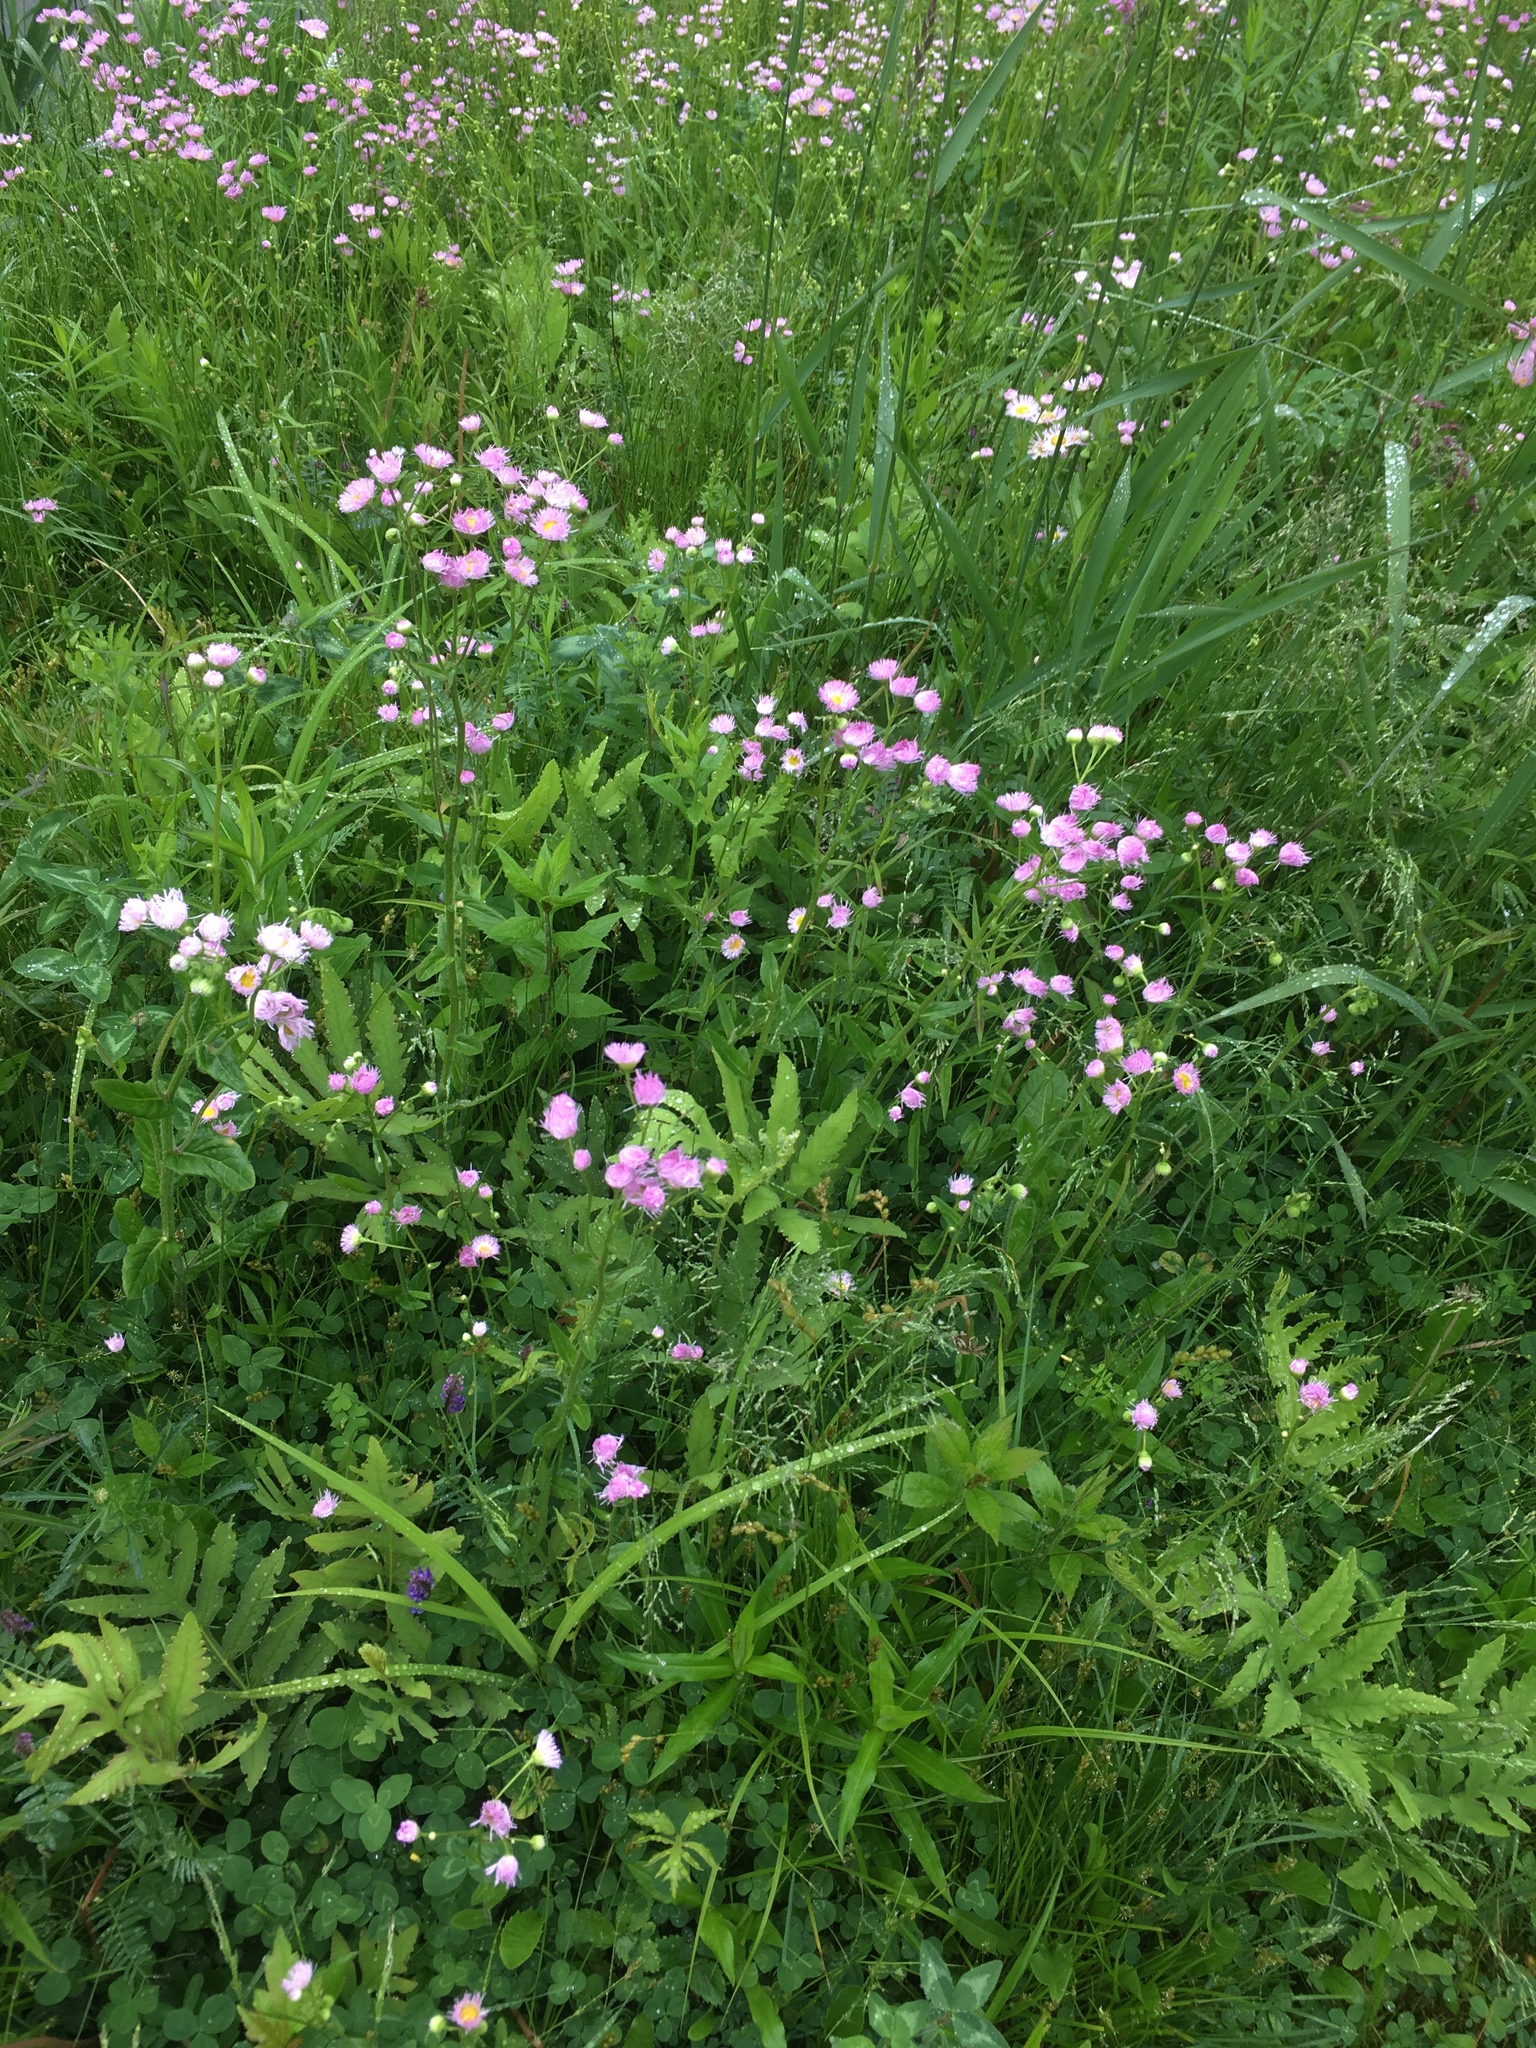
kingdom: Plantae
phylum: Tracheophyta
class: Magnoliopsida
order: Asterales
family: Asteraceae
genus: Erigeron
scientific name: Erigeron philadelphicus
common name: Robin's-plantain
